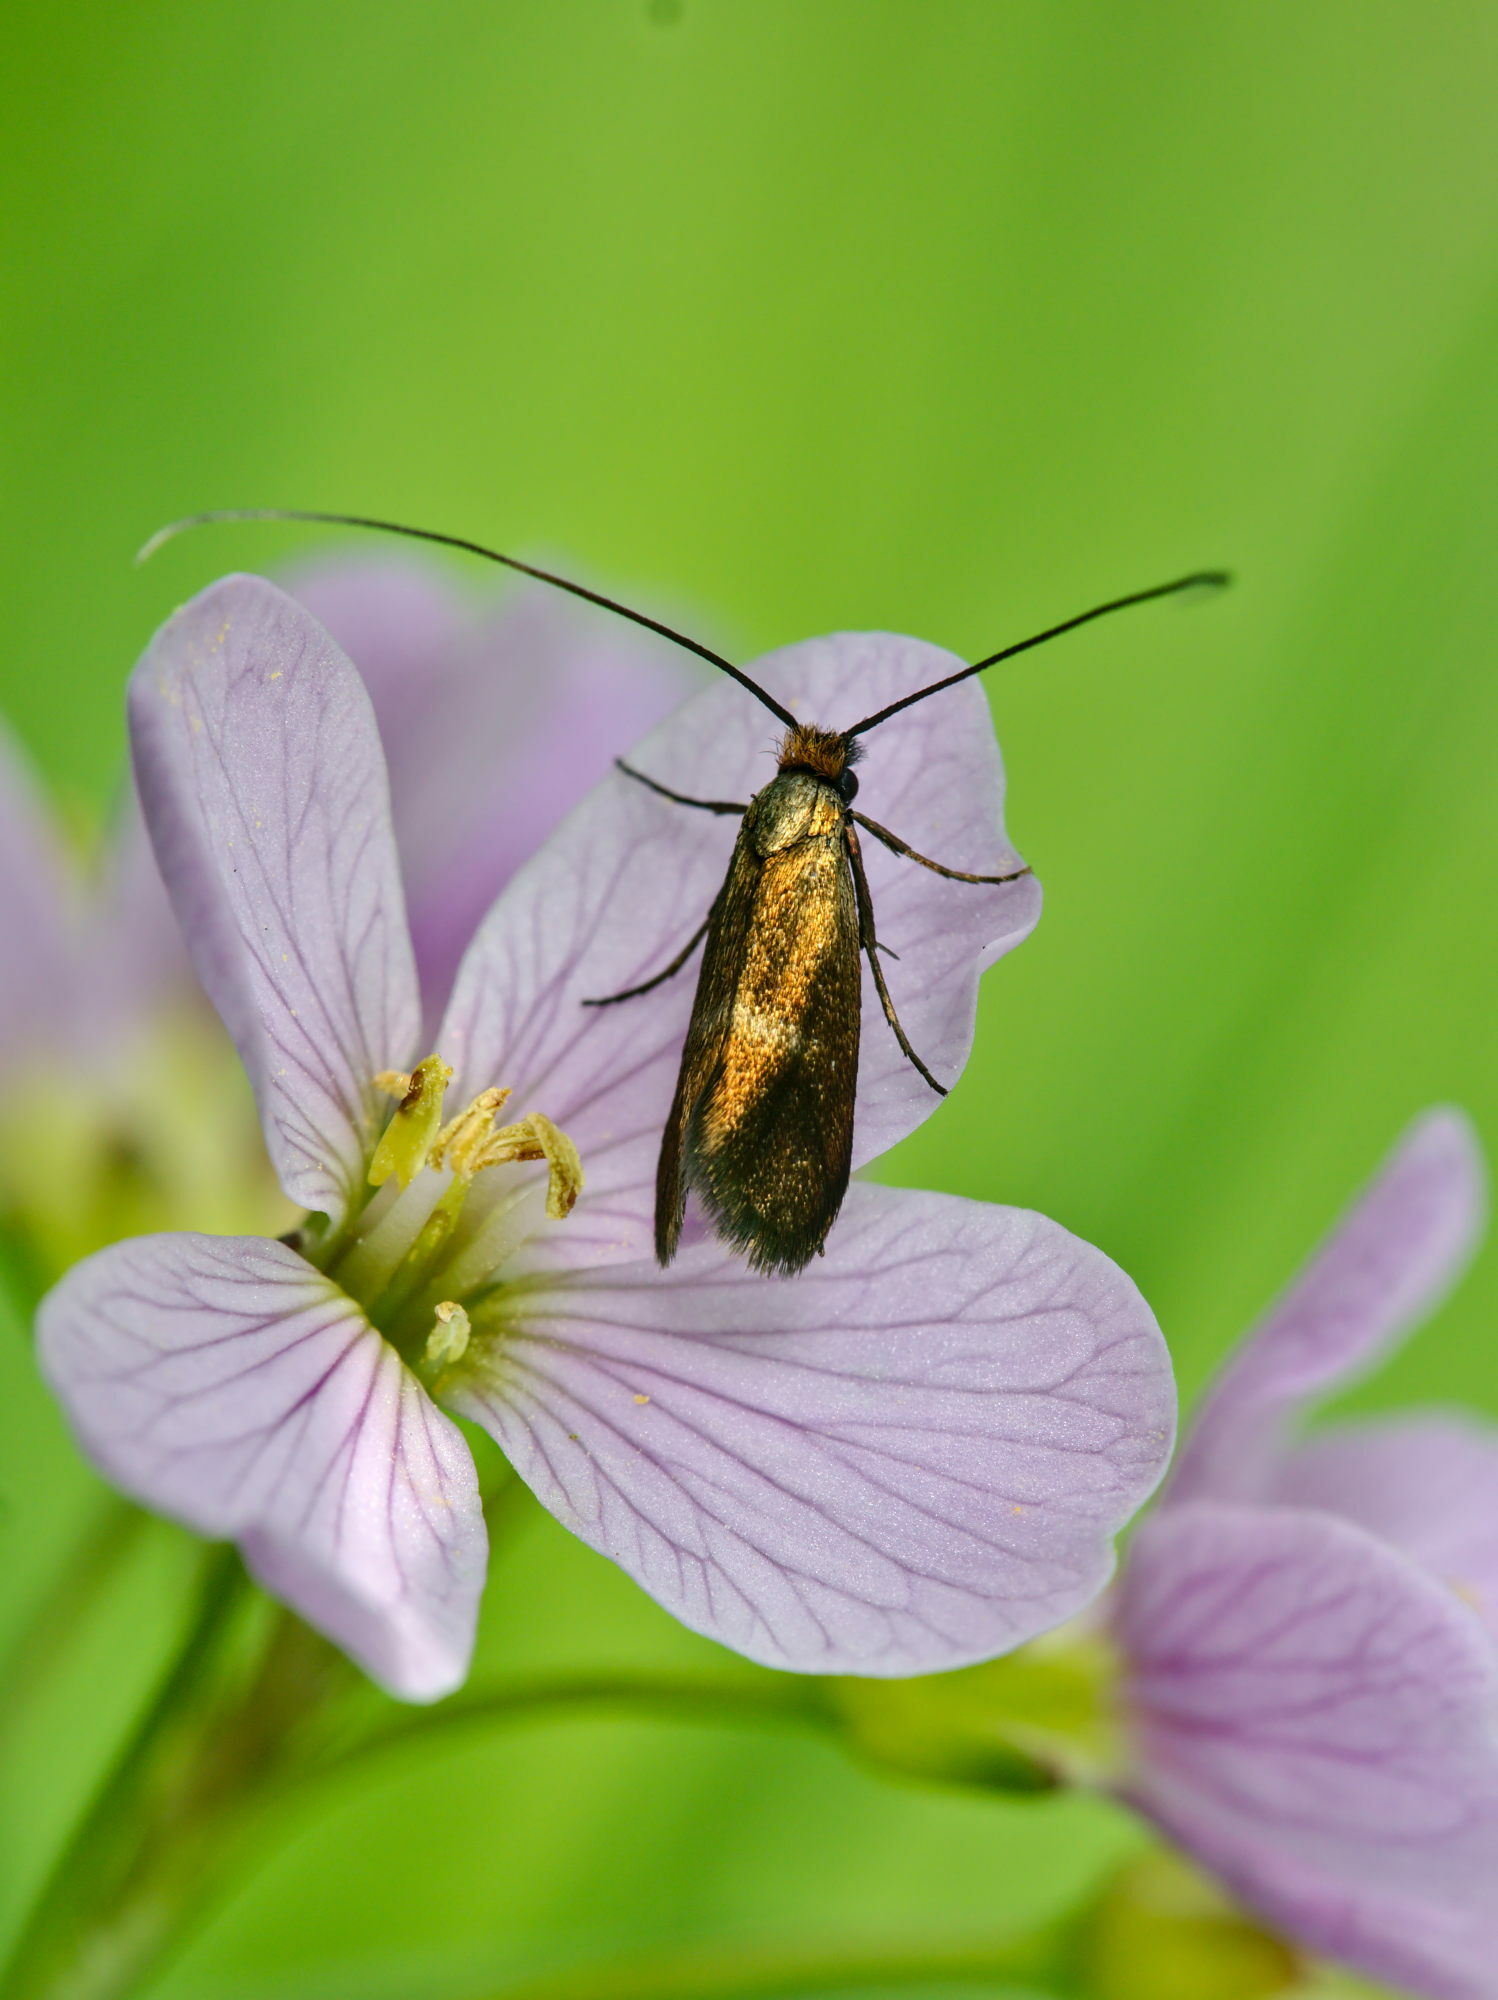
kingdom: Animalia
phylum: Arthropoda
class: Insecta
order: Lepidoptera
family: Adelidae
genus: Cauchas
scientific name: Cauchas rufimitrella
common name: Meadow long-horn
